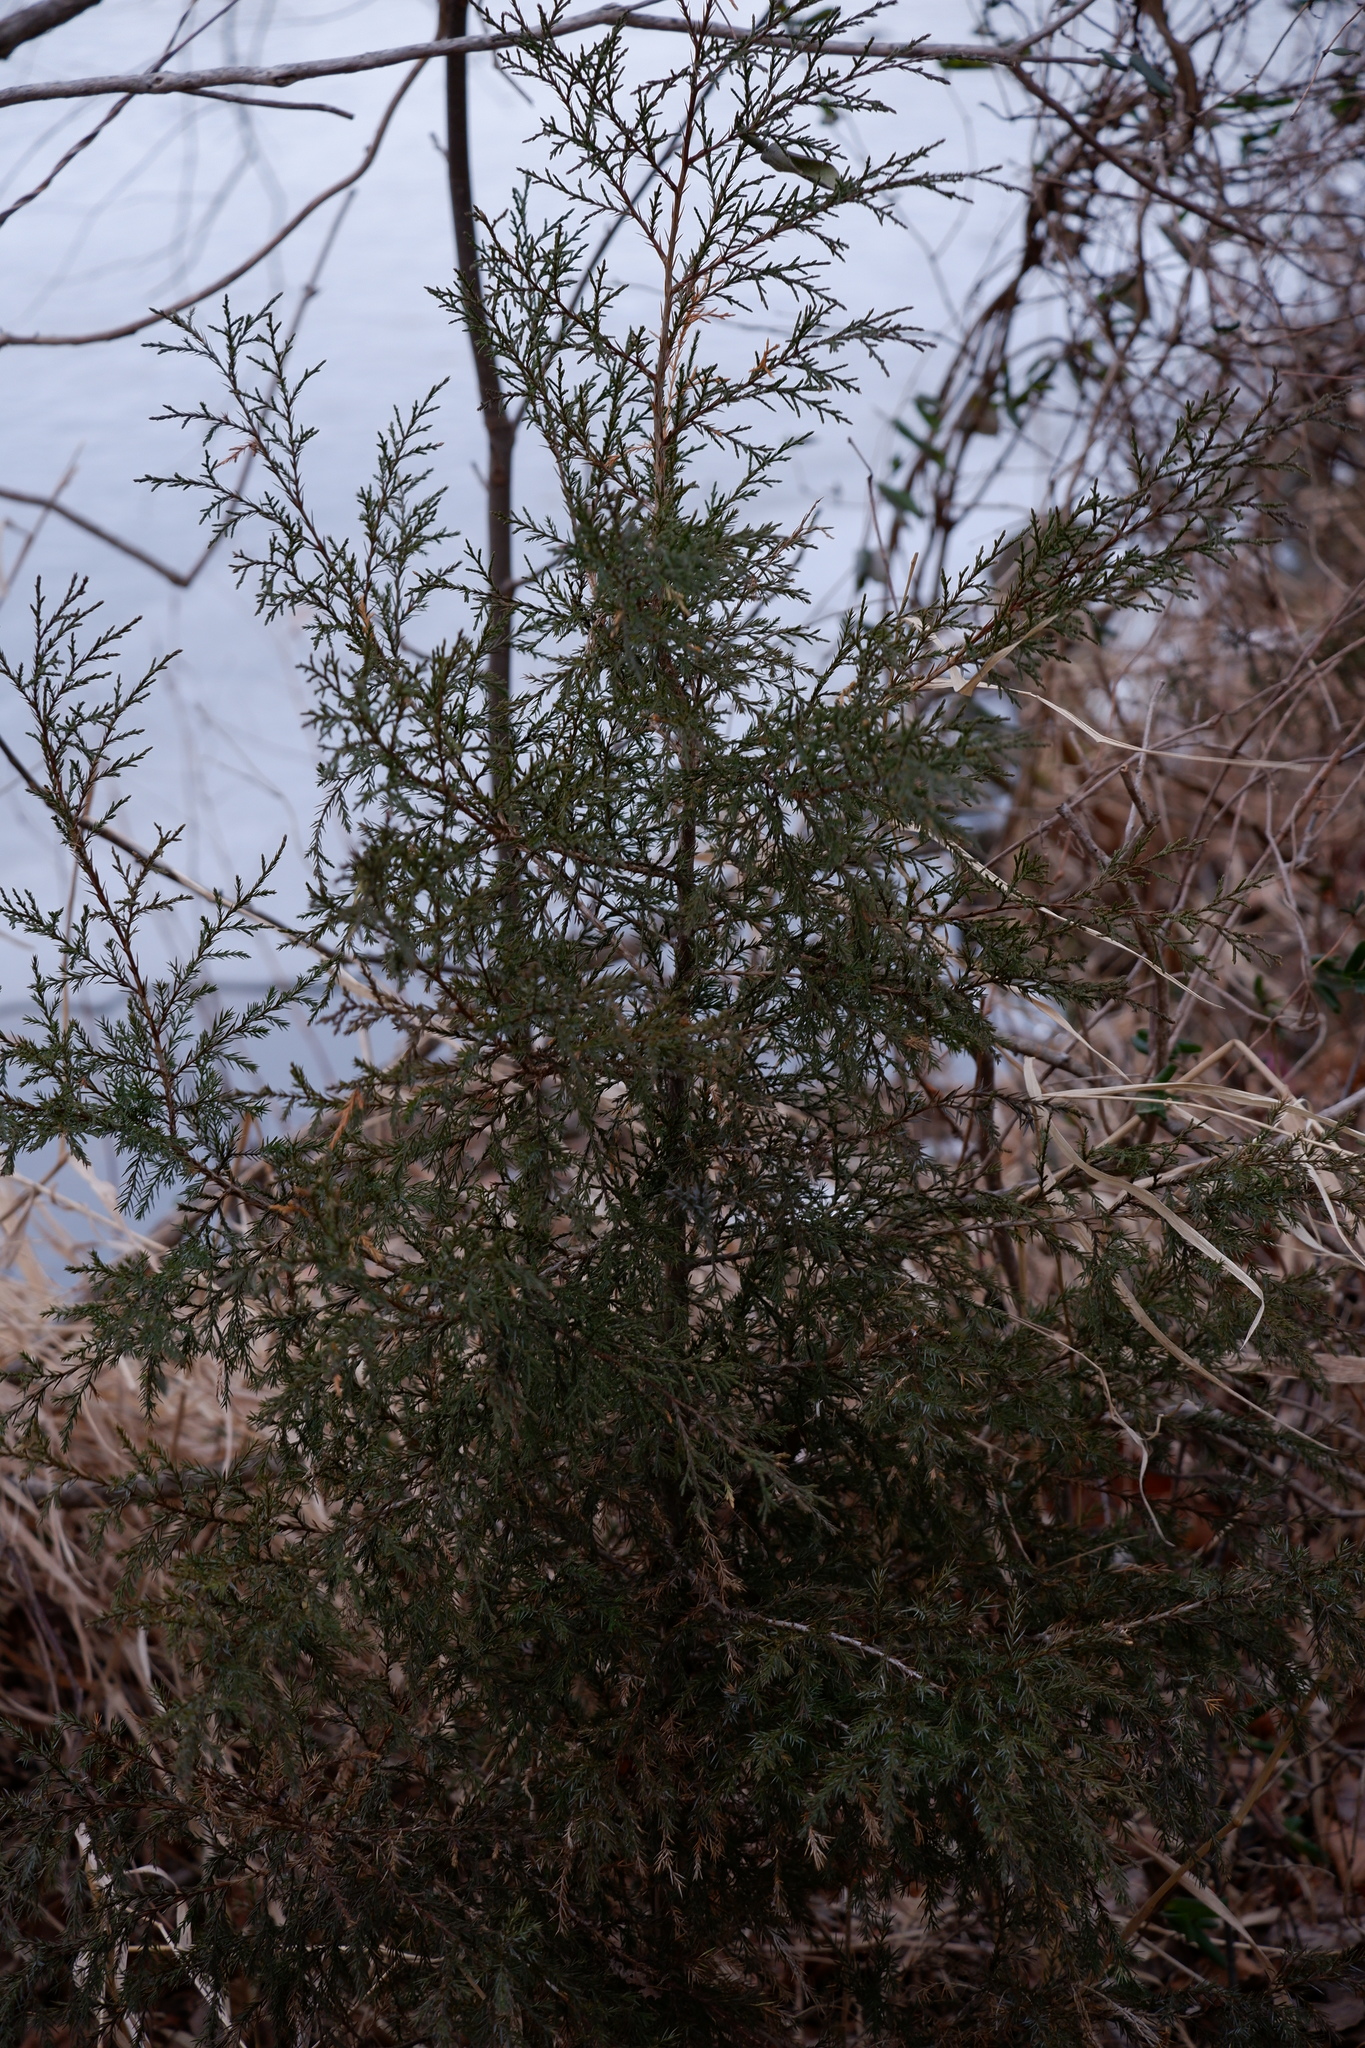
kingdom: Plantae
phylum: Tracheophyta
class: Pinopsida
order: Pinales
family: Cupressaceae
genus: Juniperus
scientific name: Juniperus virginiana
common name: Red juniper
